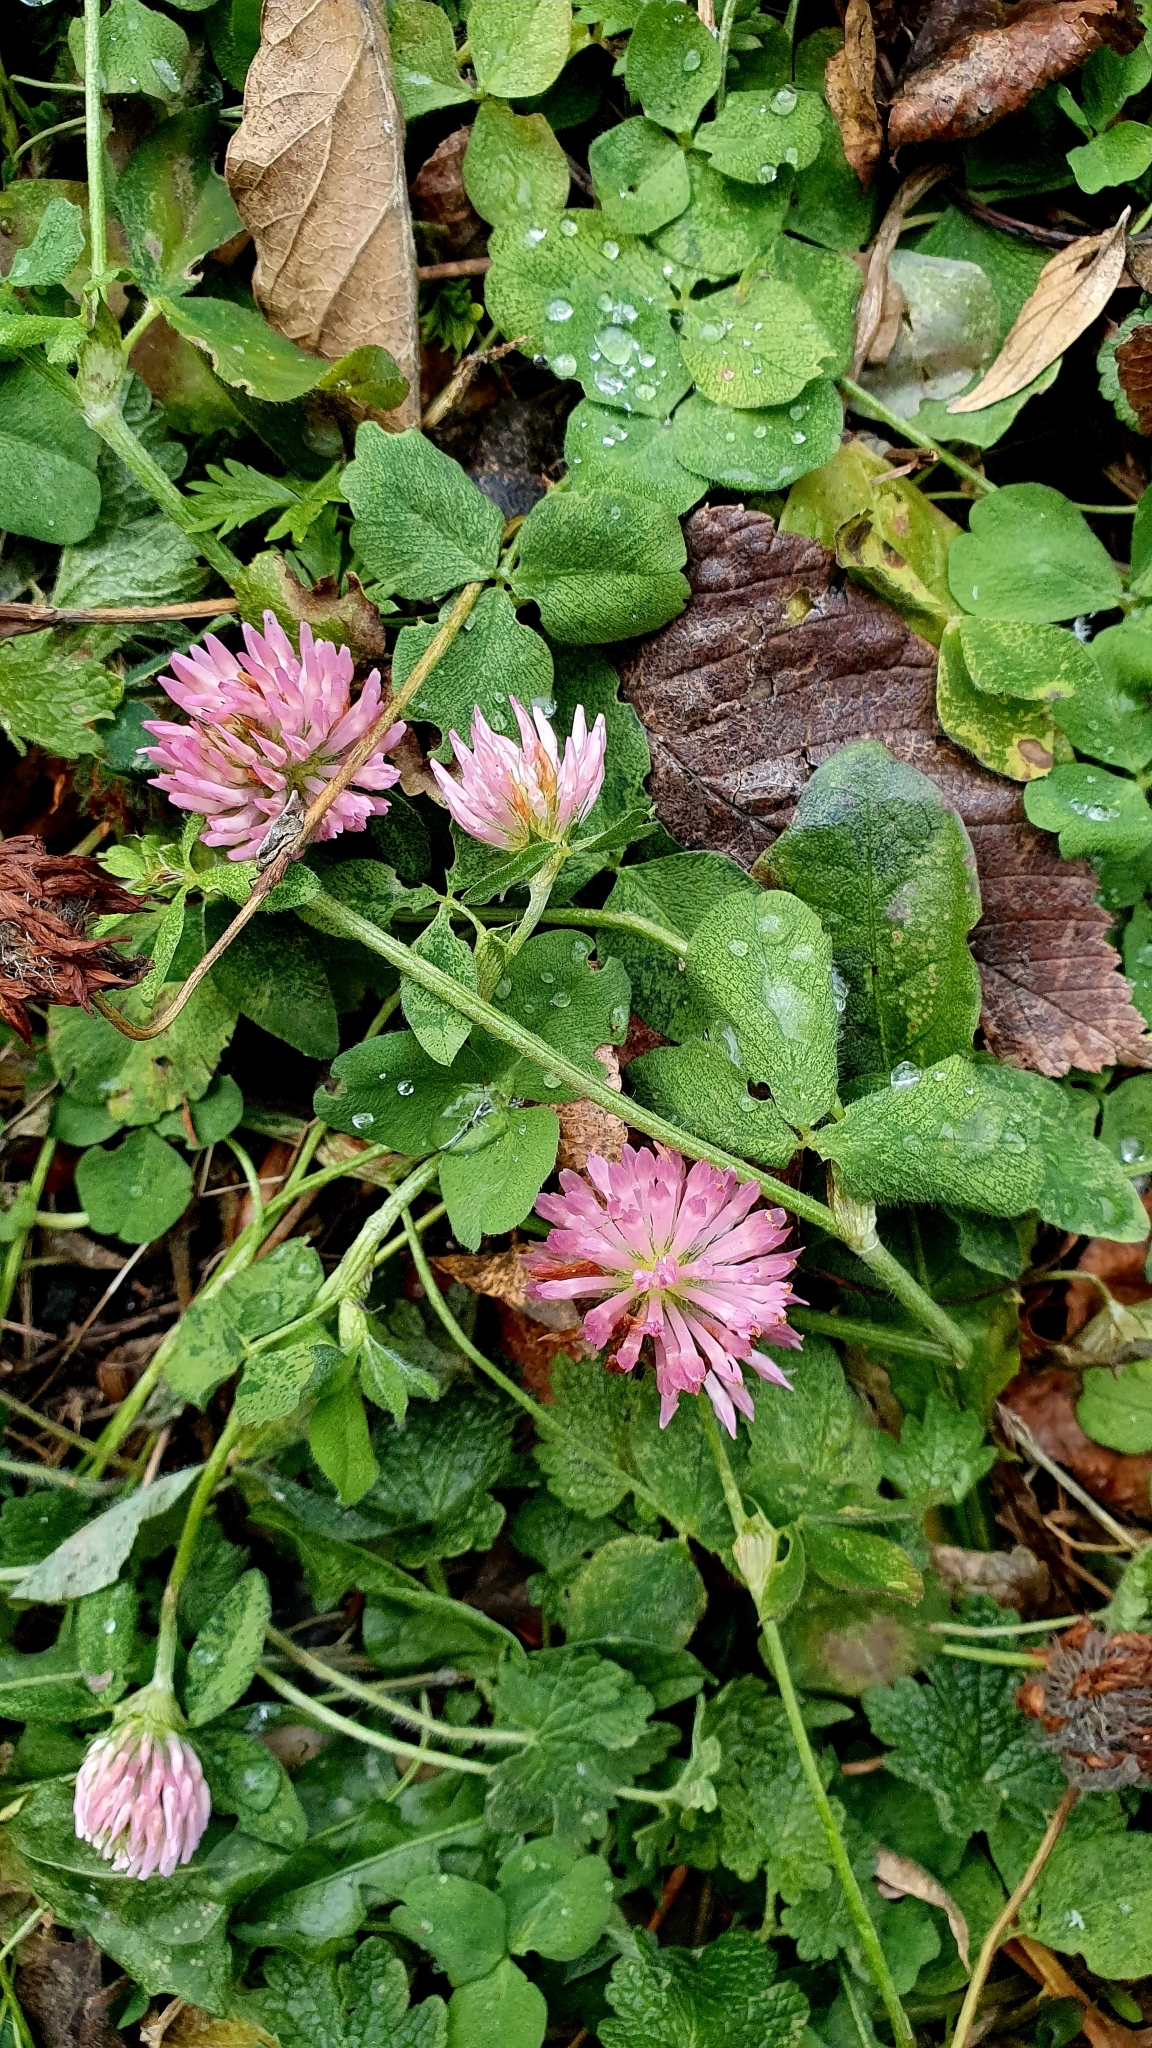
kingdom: Plantae
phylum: Tracheophyta
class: Magnoliopsida
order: Fabales
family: Fabaceae
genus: Trifolium
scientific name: Trifolium pratense
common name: Red clover
